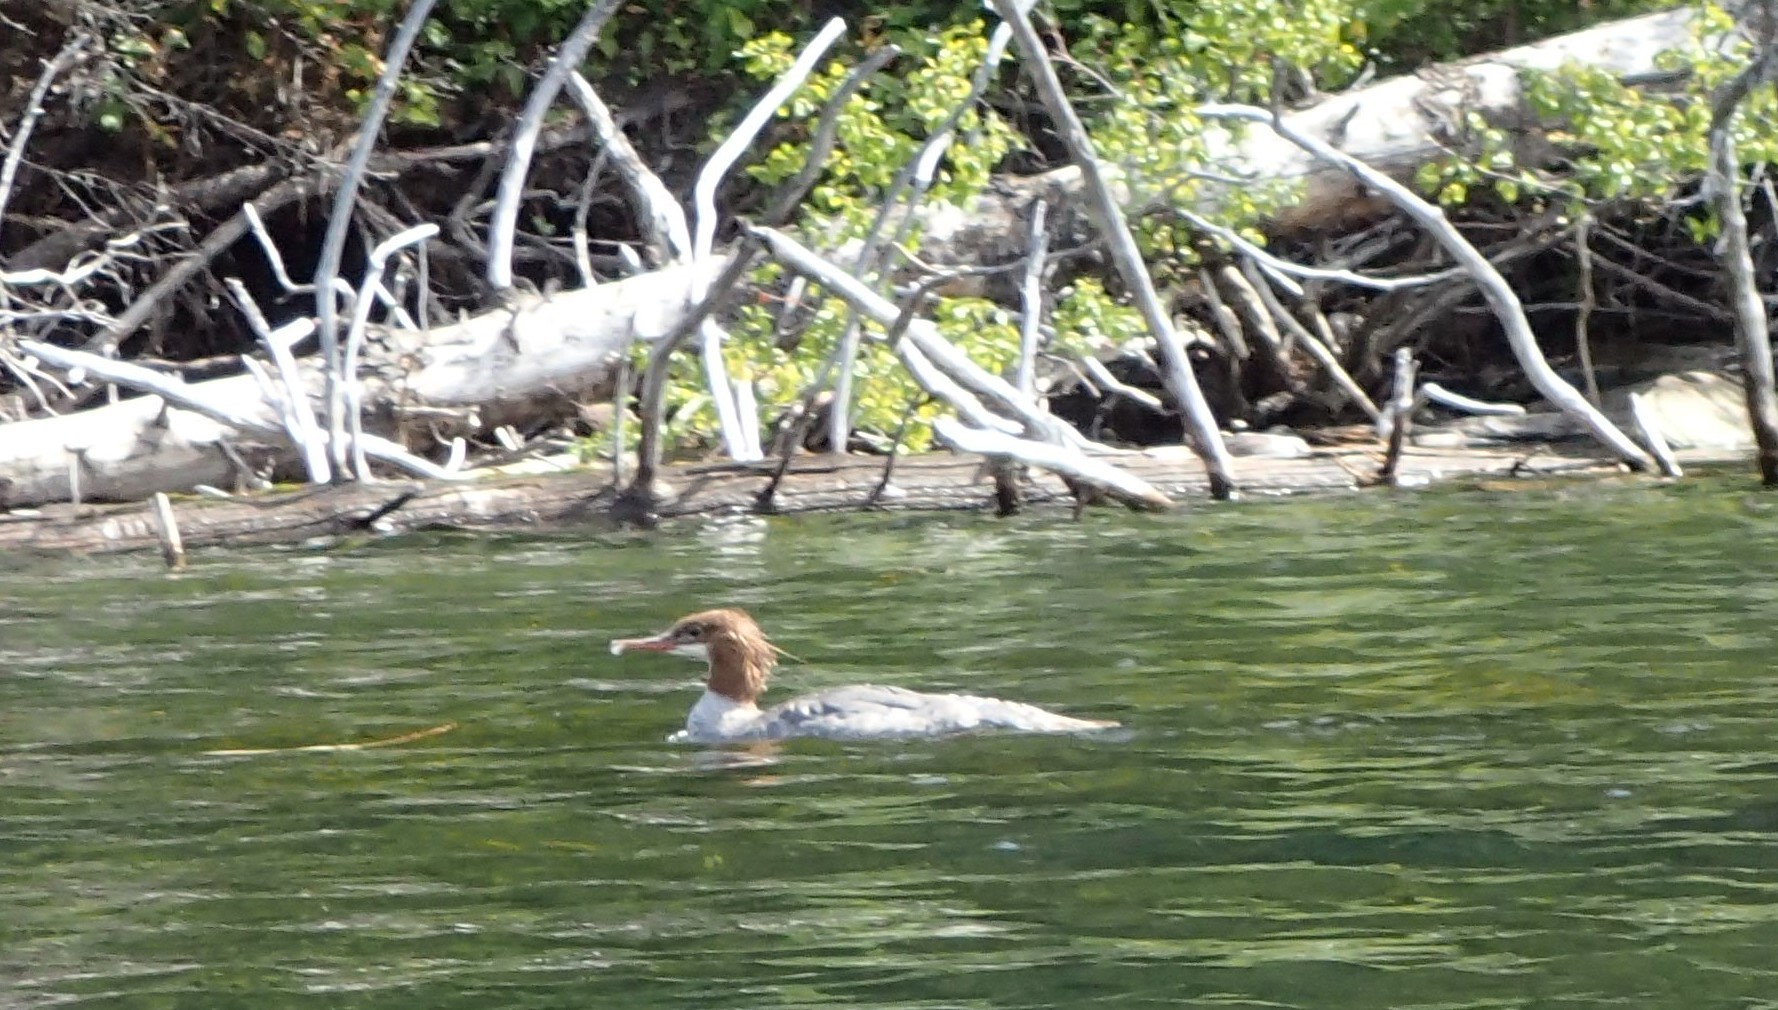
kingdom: Animalia
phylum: Chordata
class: Aves
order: Anseriformes
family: Anatidae
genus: Mergus
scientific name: Mergus merganser
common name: Common merganser
